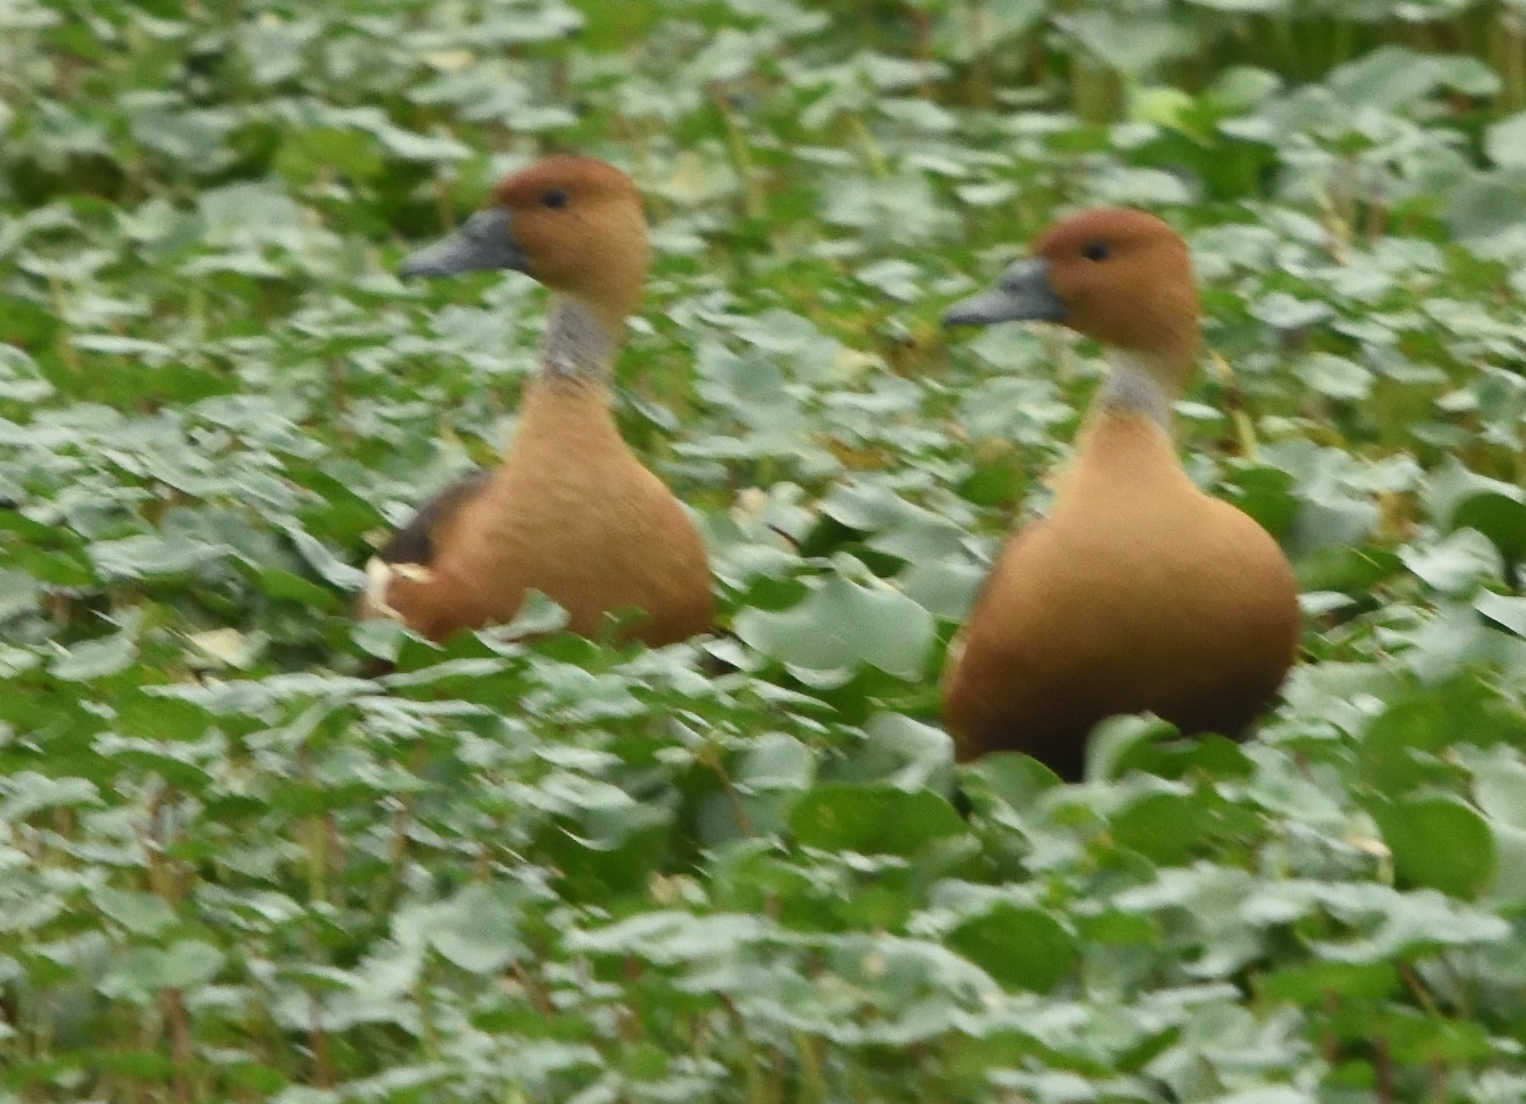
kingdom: Animalia
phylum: Chordata
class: Aves
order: Anseriformes
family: Anatidae
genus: Dendrocygna
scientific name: Dendrocygna bicolor
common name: Fulvous whistling duck
